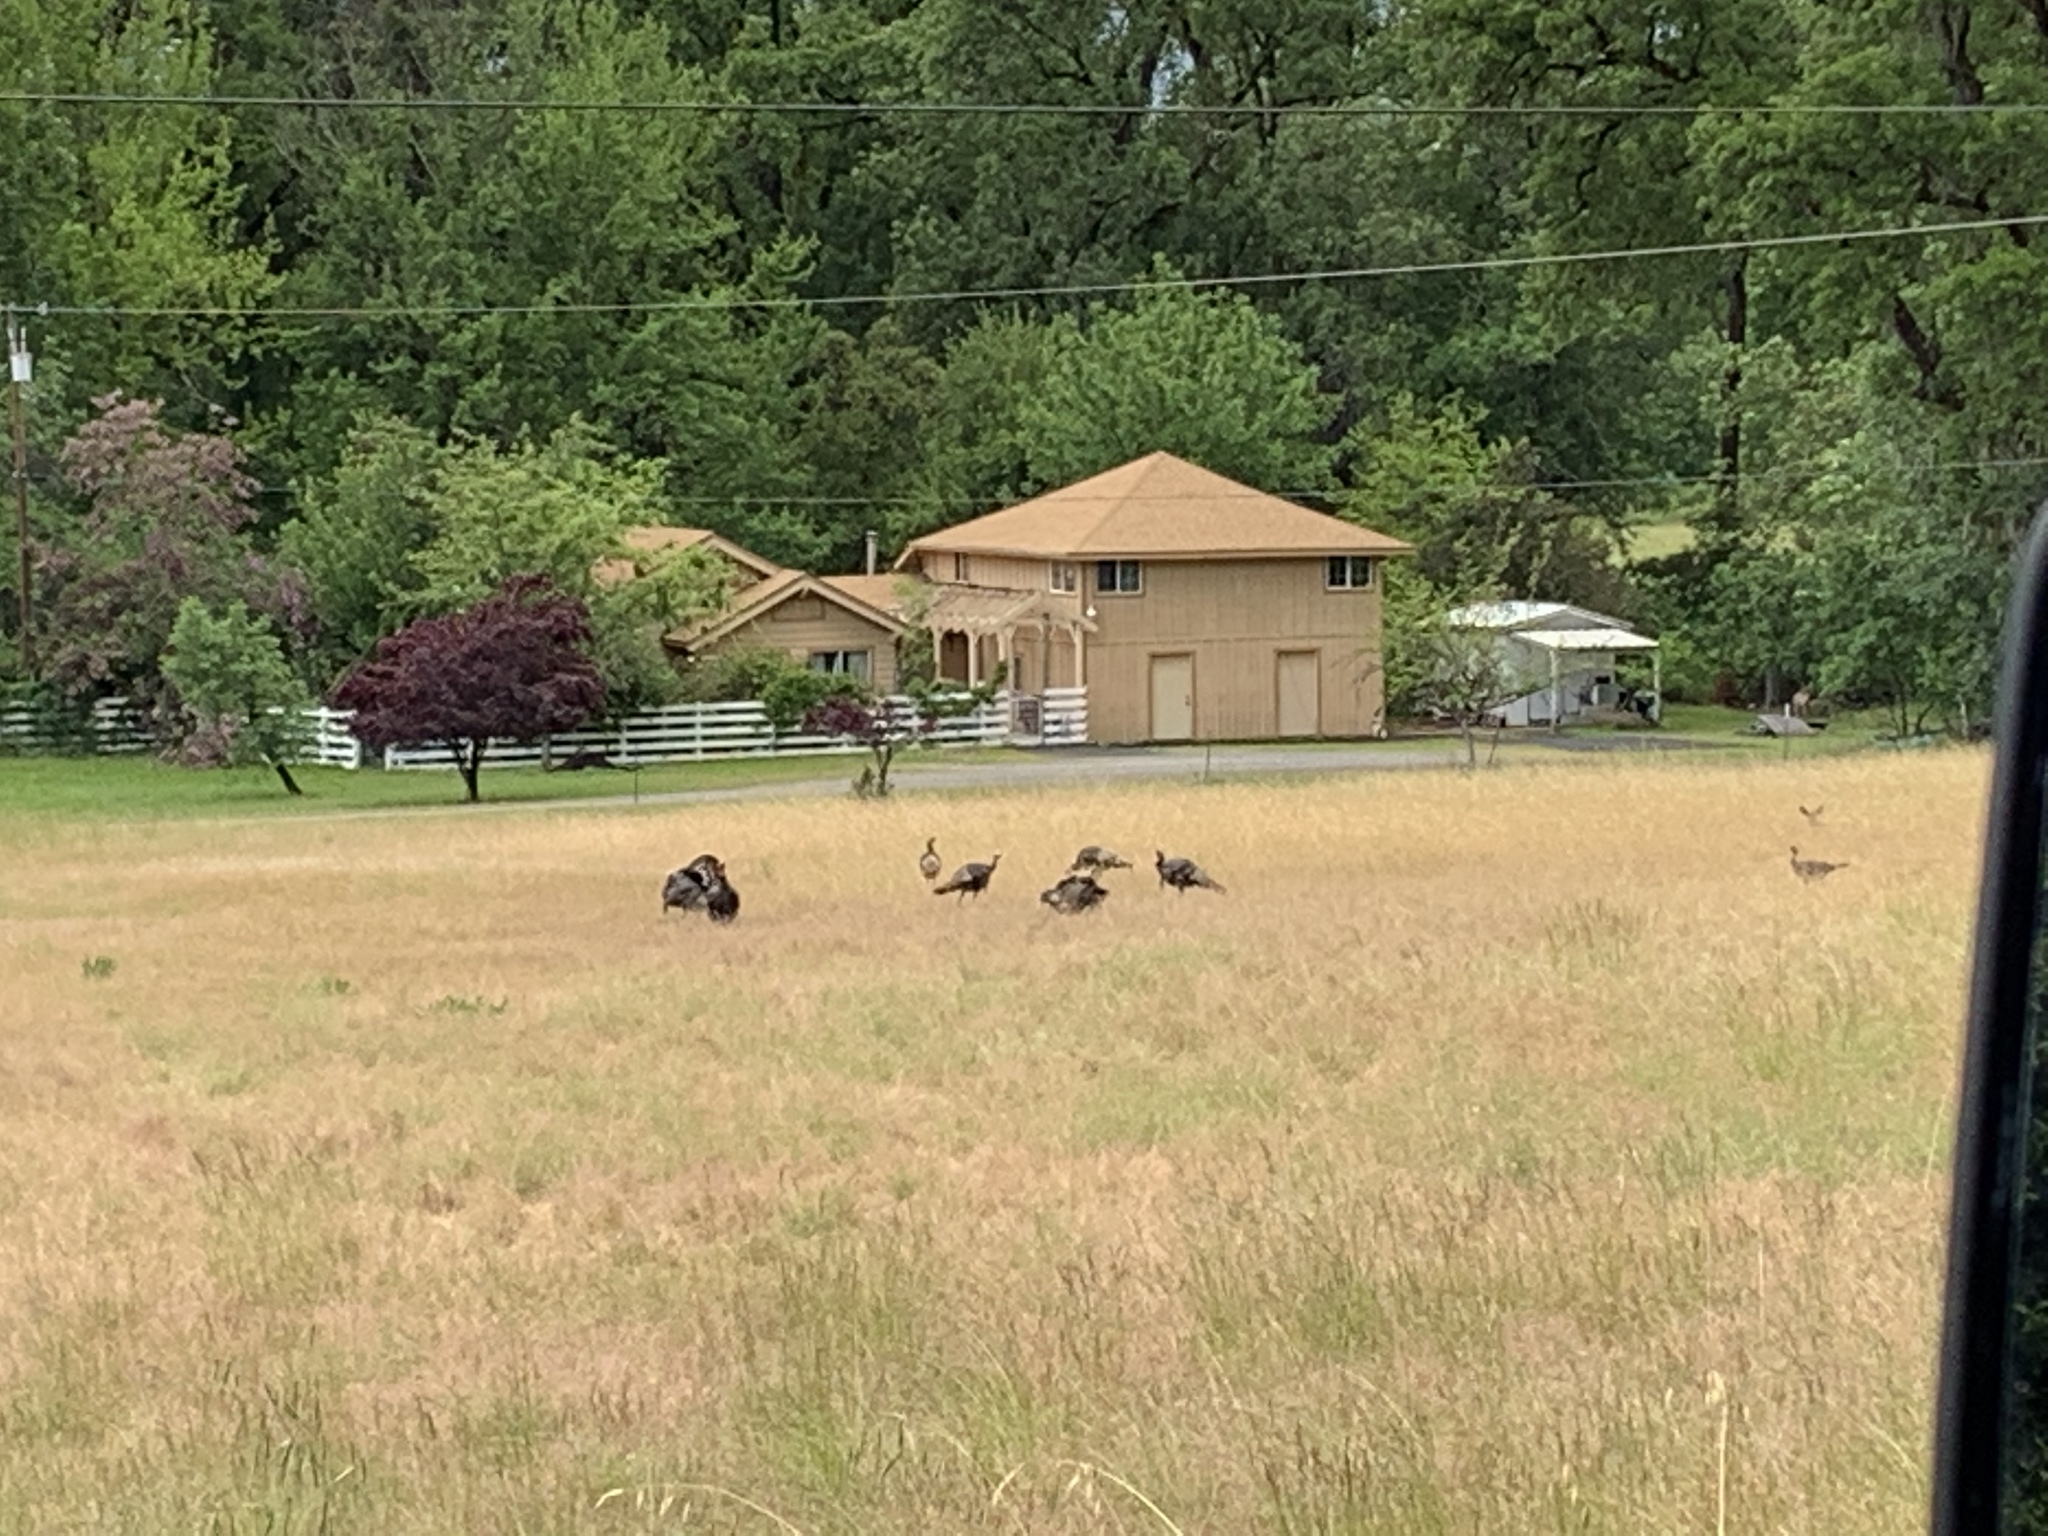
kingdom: Animalia
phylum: Chordata
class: Aves
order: Galliformes
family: Phasianidae
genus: Meleagris
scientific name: Meleagris gallopavo
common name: Wild turkey
